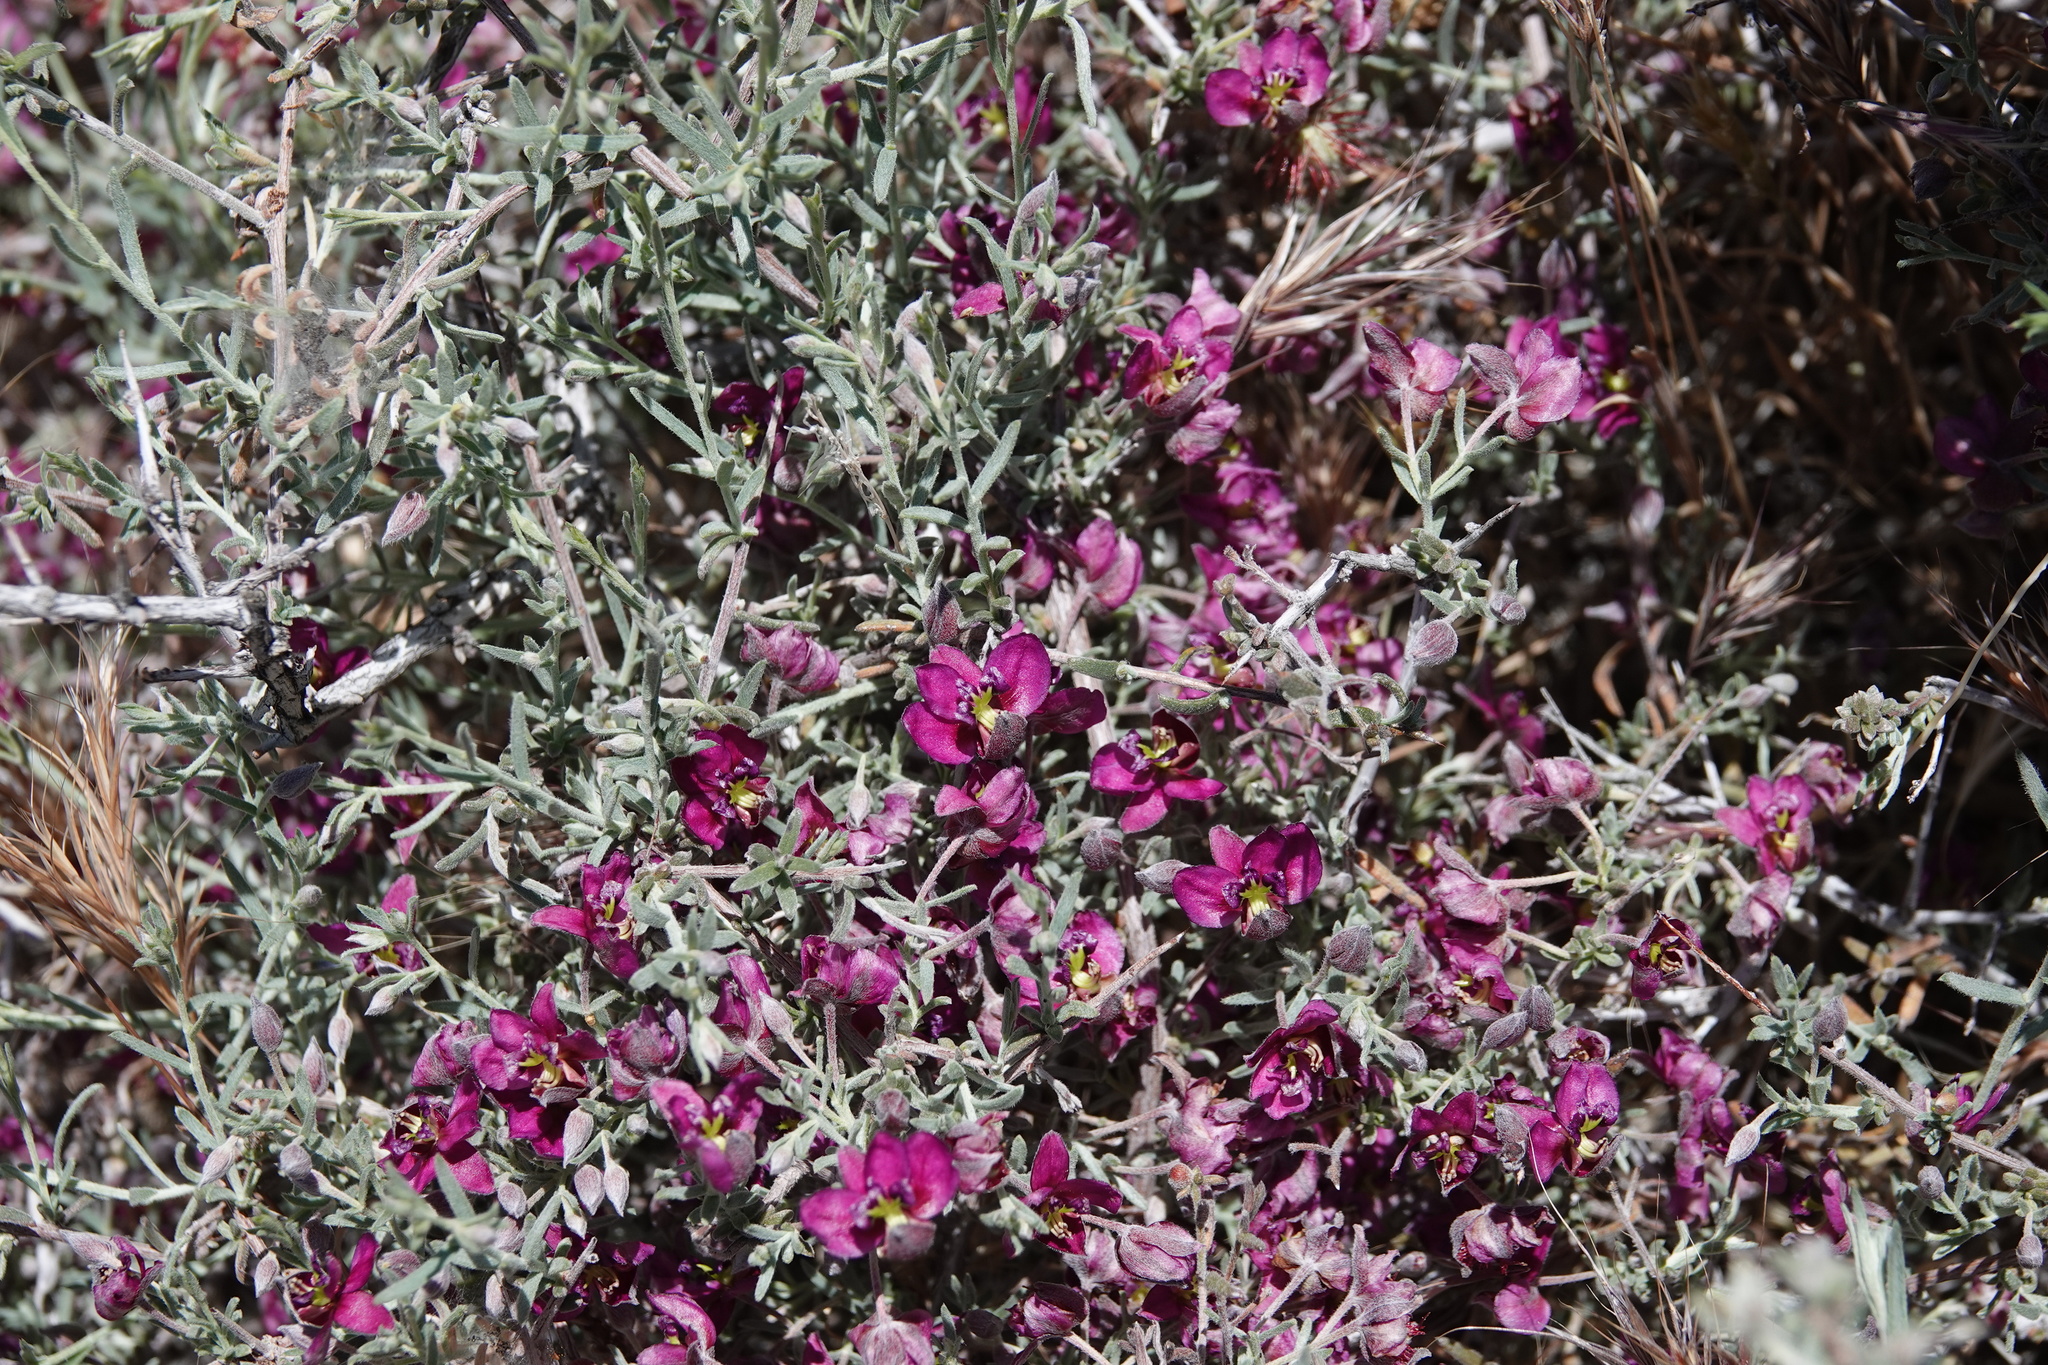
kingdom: Plantae
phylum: Tracheophyta
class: Magnoliopsida
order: Zygophyllales
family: Krameriaceae
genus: Krameria
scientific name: Krameria erecta
